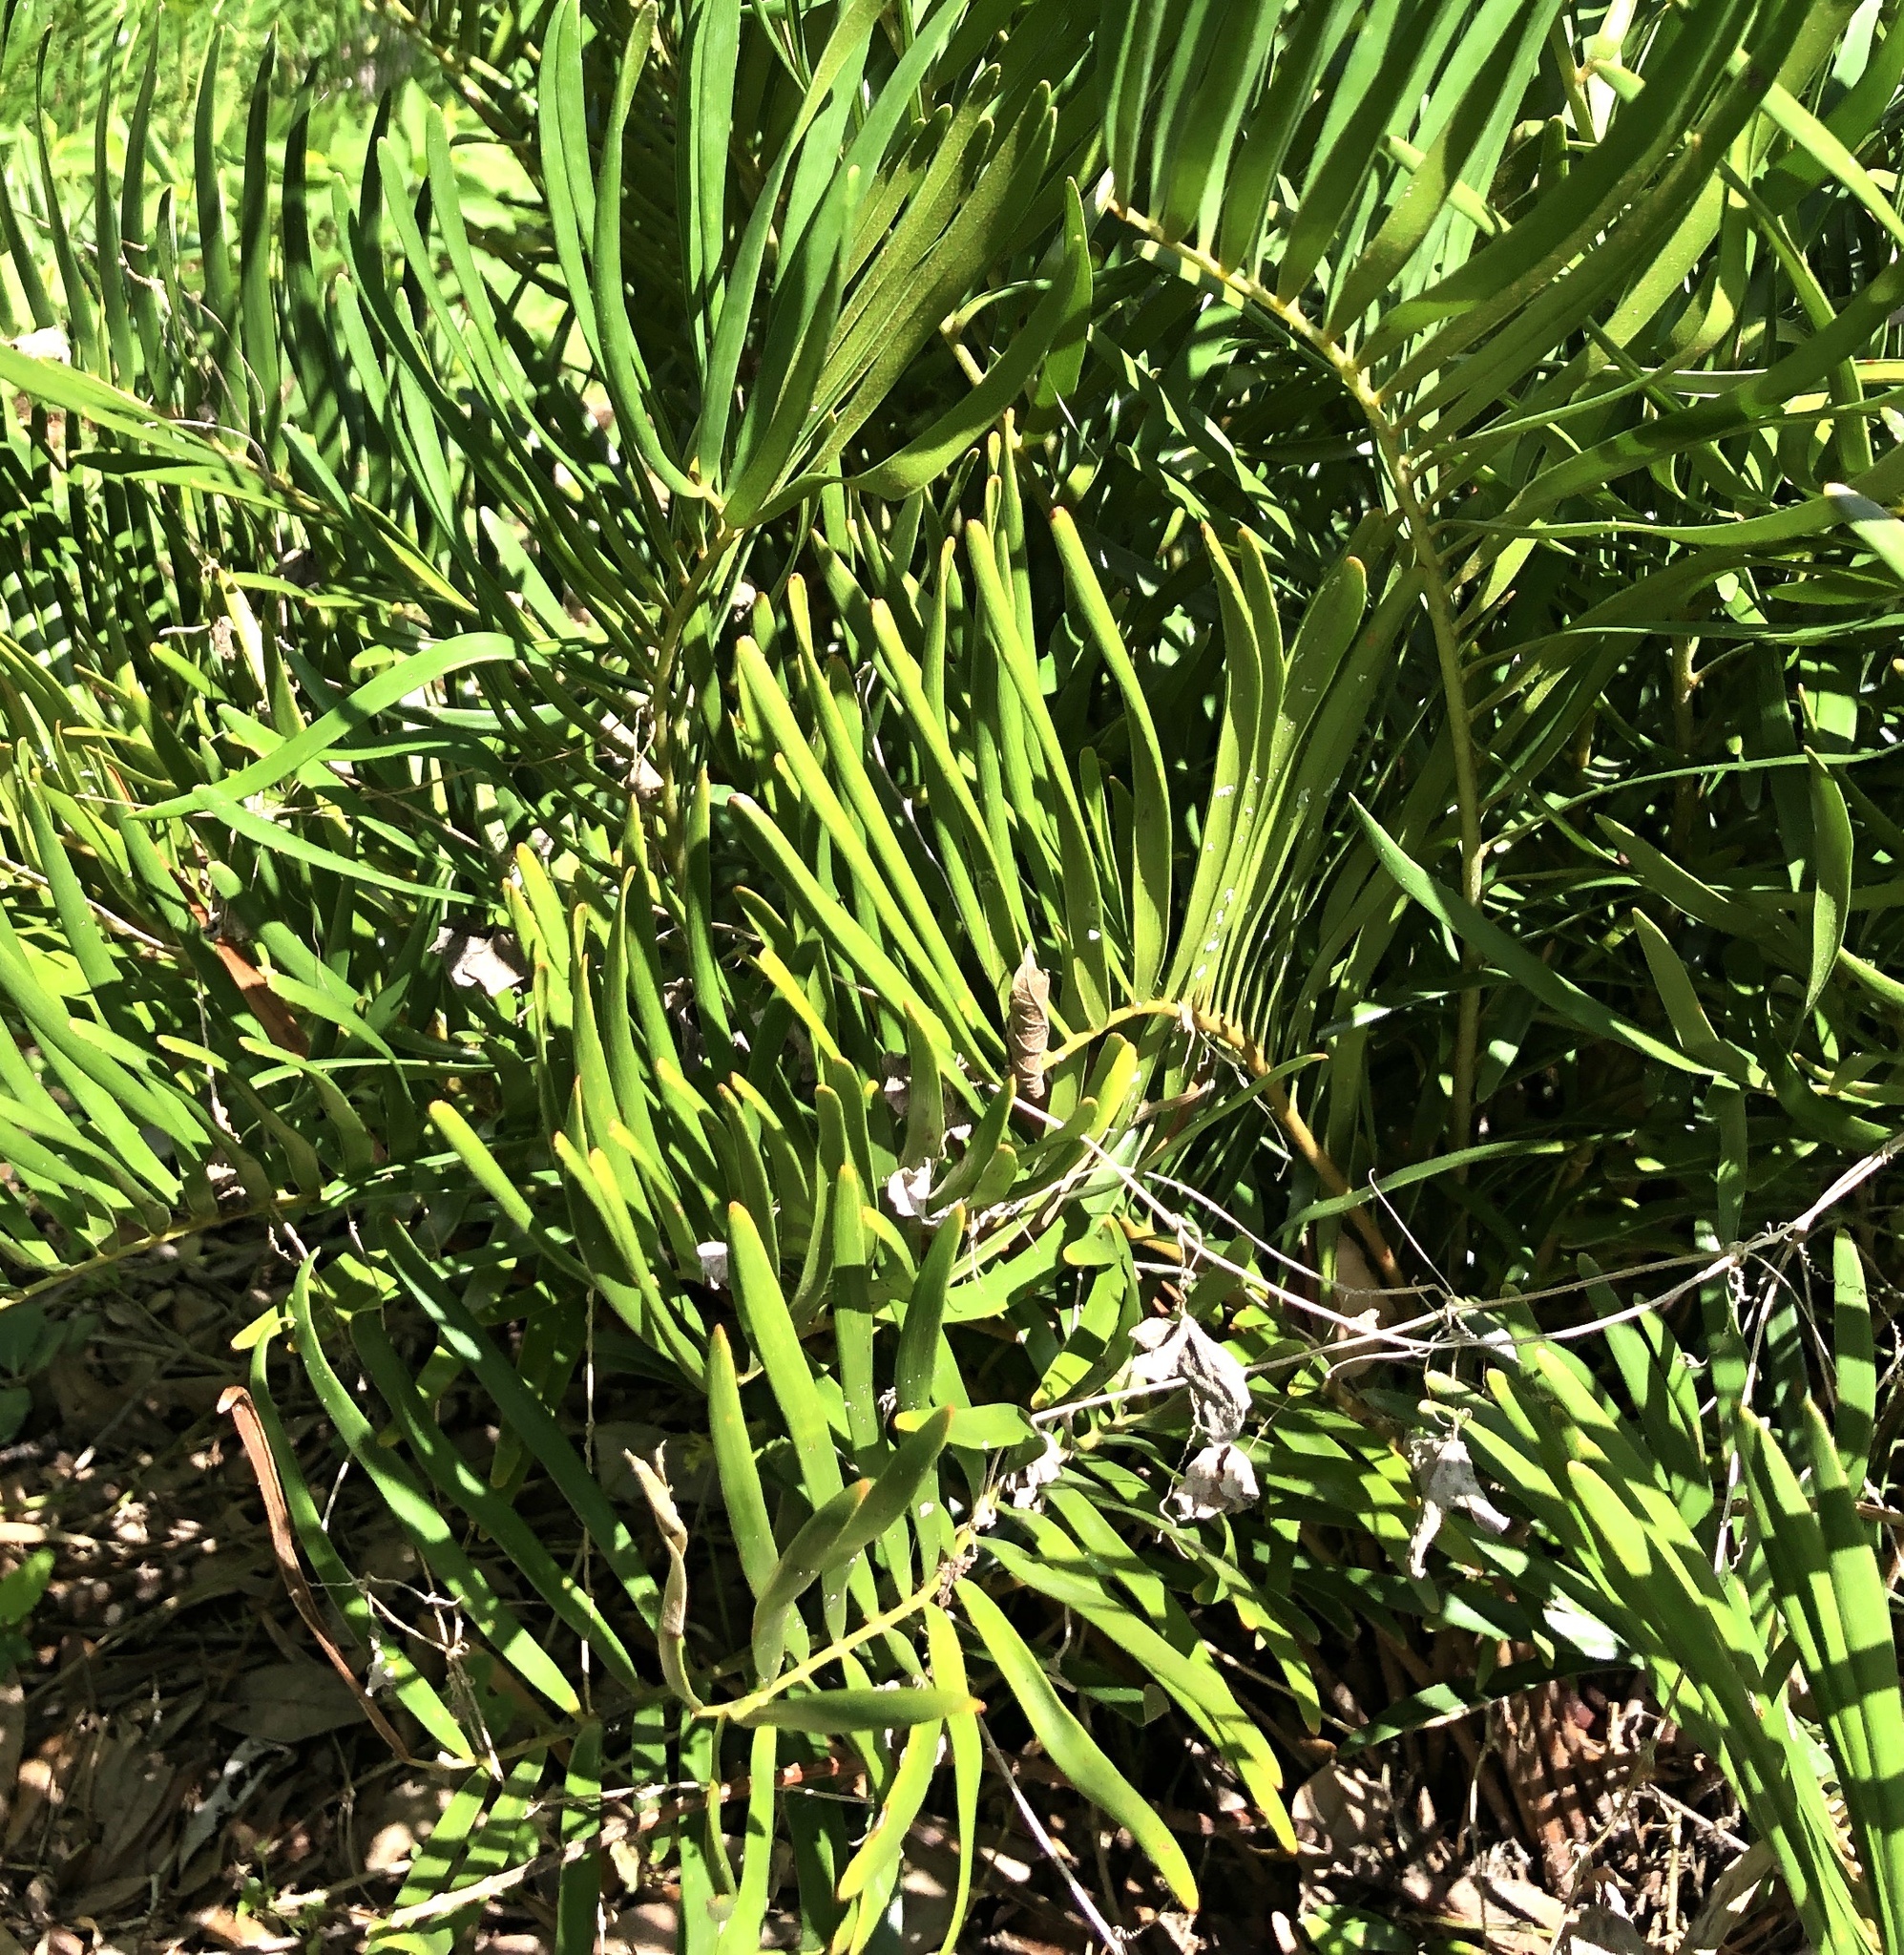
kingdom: Plantae
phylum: Tracheophyta
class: Cycadopsida
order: Cycadales
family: Zamiaceae
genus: Zamia
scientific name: Zamia integrifolia
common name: Florida arrowroot
